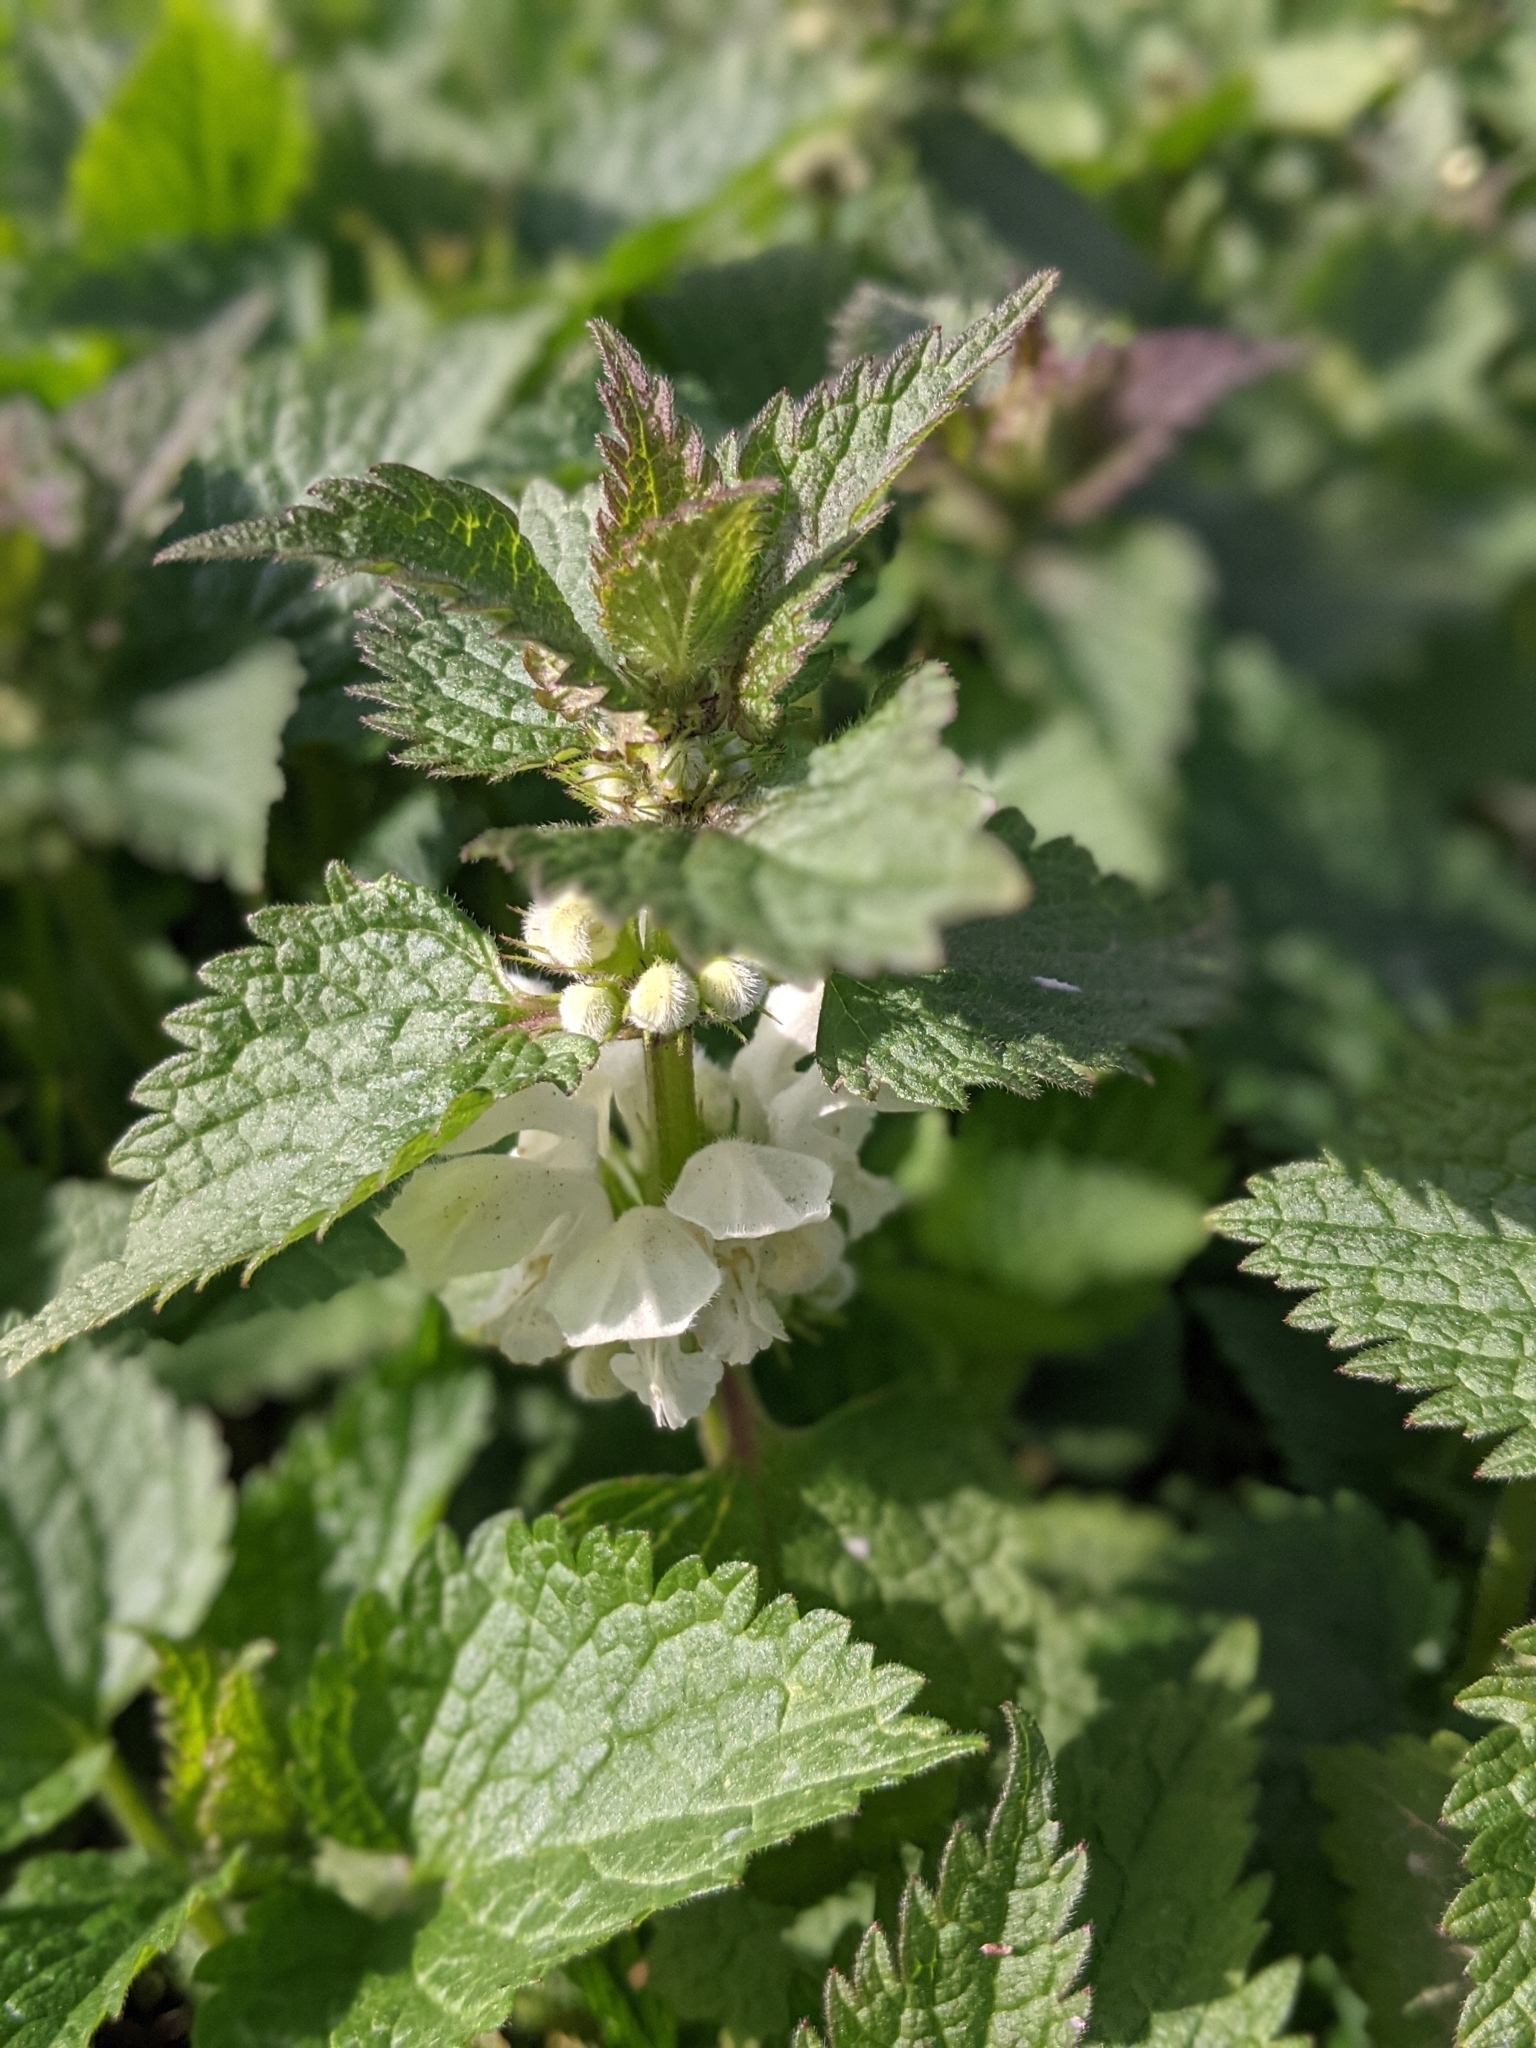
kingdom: Plantae
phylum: Tracheophyta
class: Magnoliopsida
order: Lamiales
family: Lamiaceae
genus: Lamium
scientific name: Lamium album
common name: White dead-nettle
